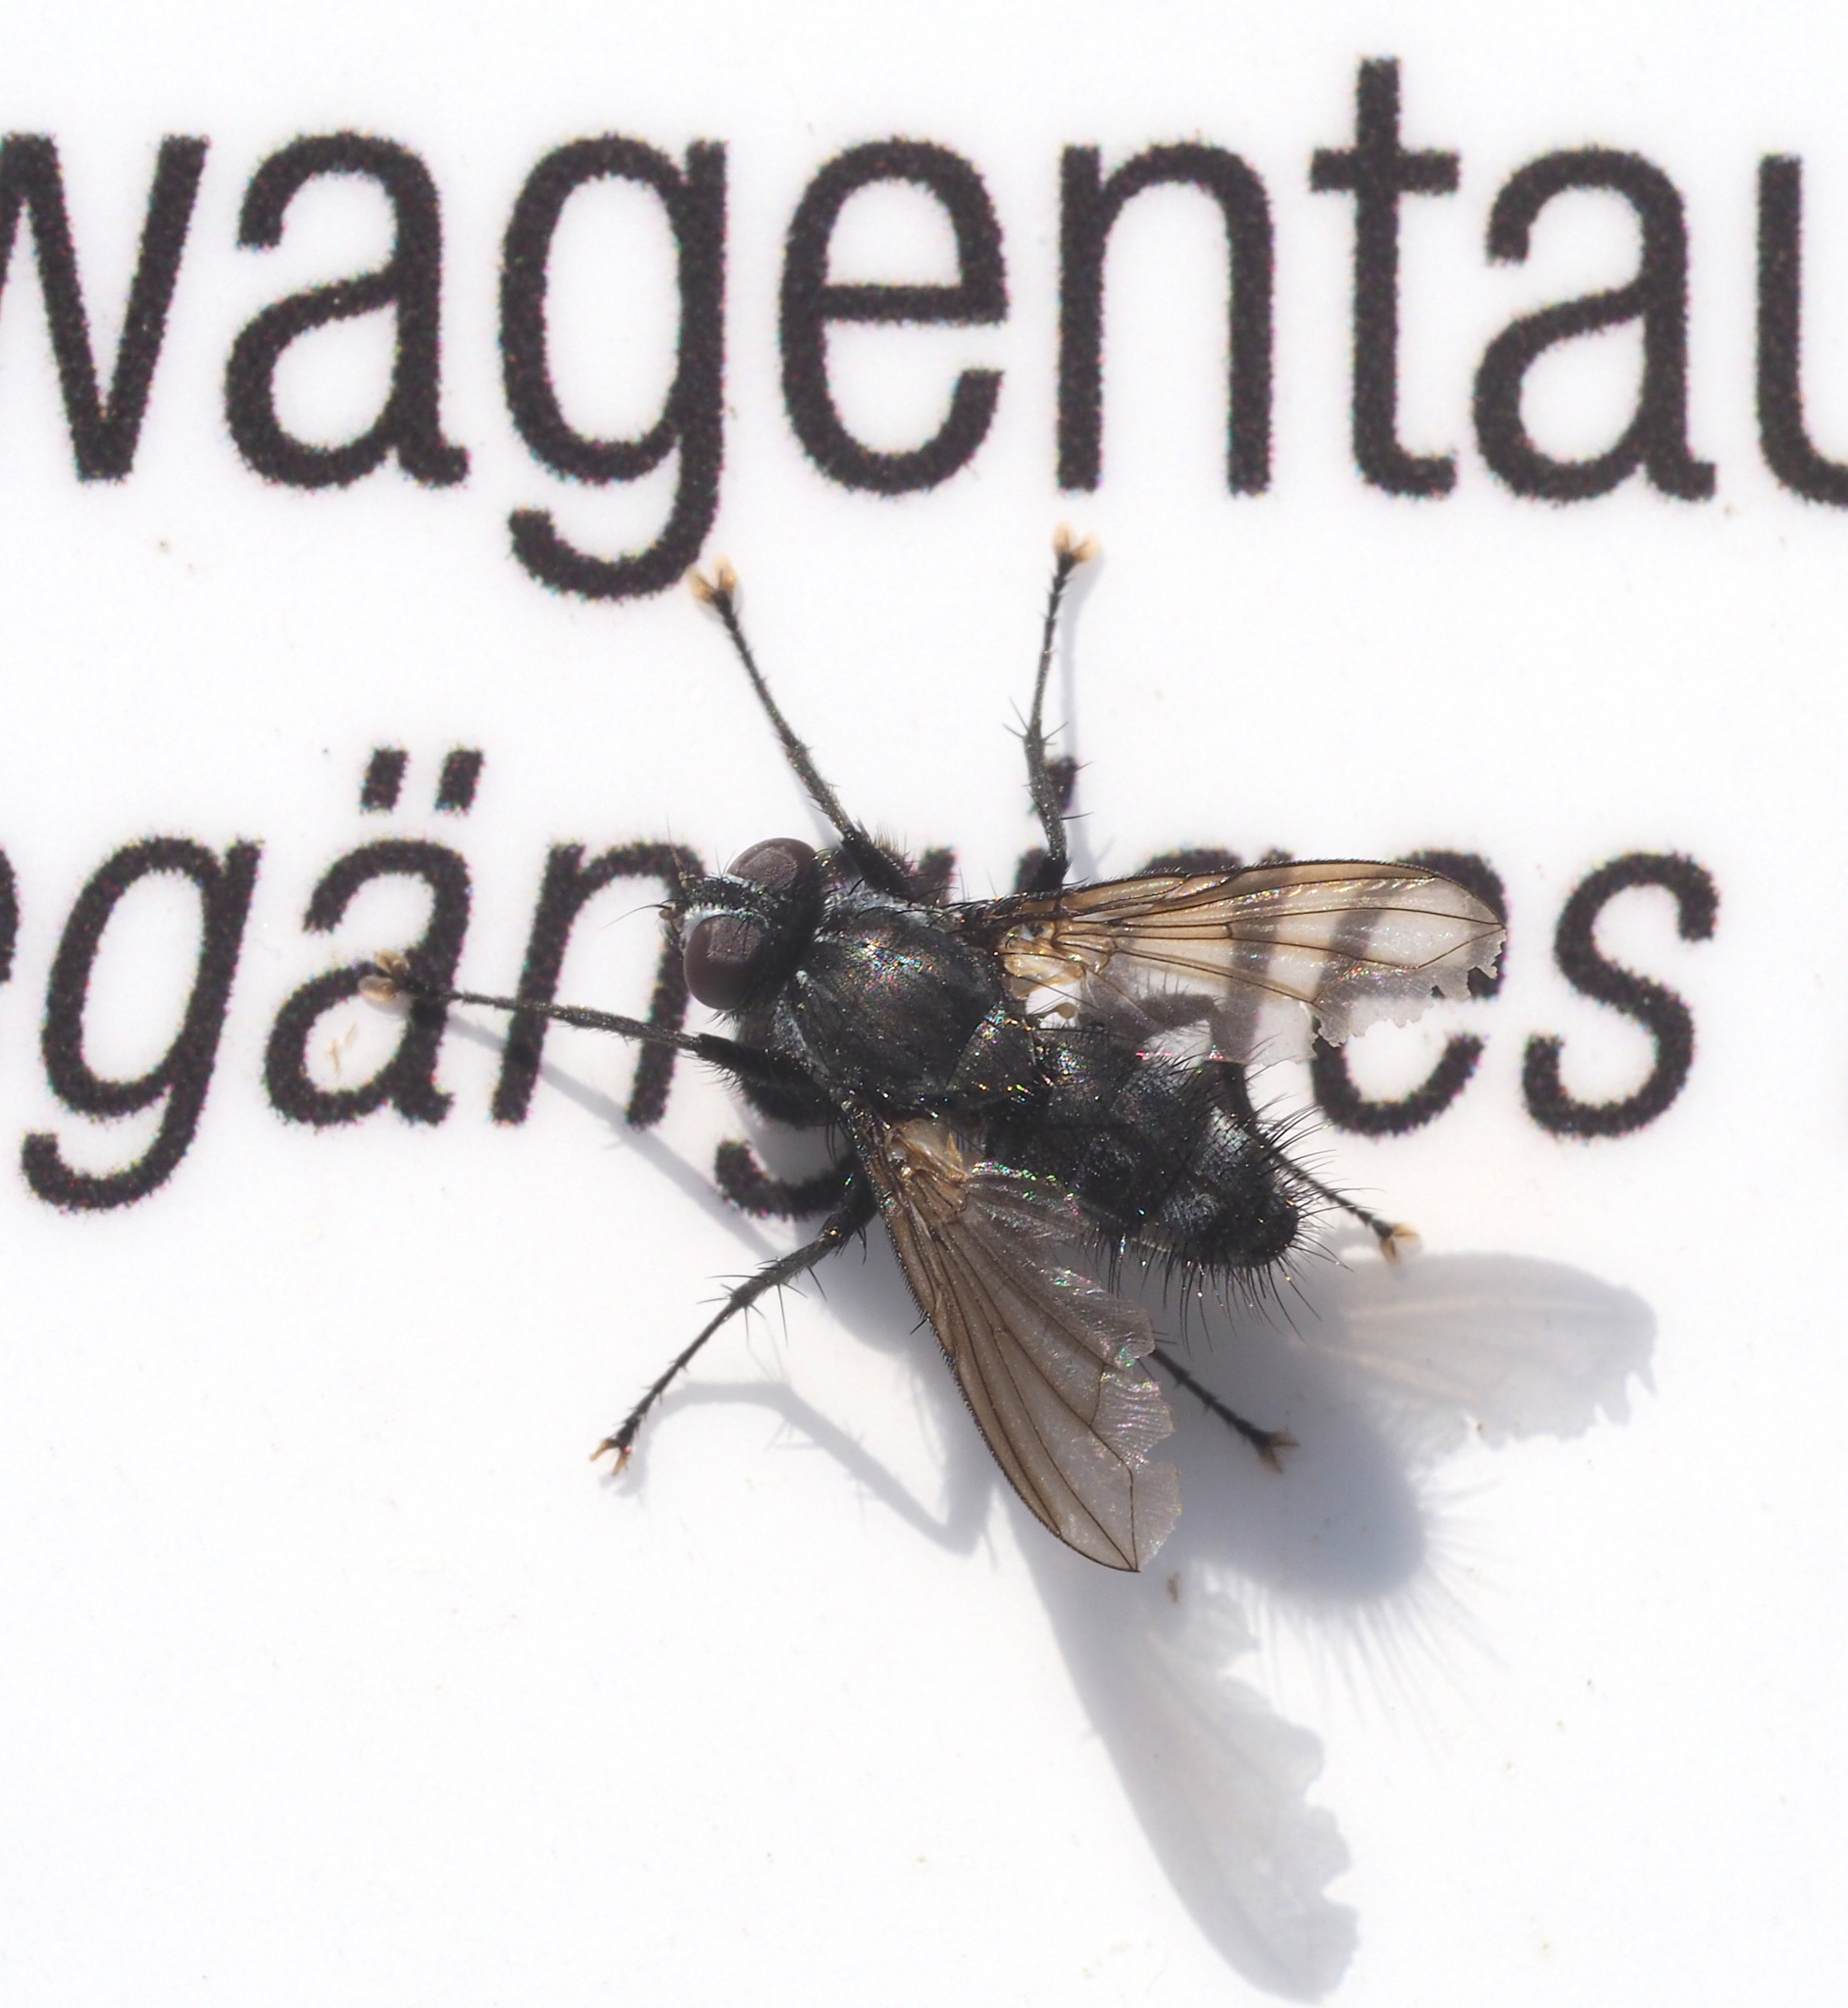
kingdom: Animalia
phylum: Arthropoda
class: Insecta
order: Diptera
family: Calliphoridae
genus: Rhinomorinia
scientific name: Rhinomorinia sarcophagina
